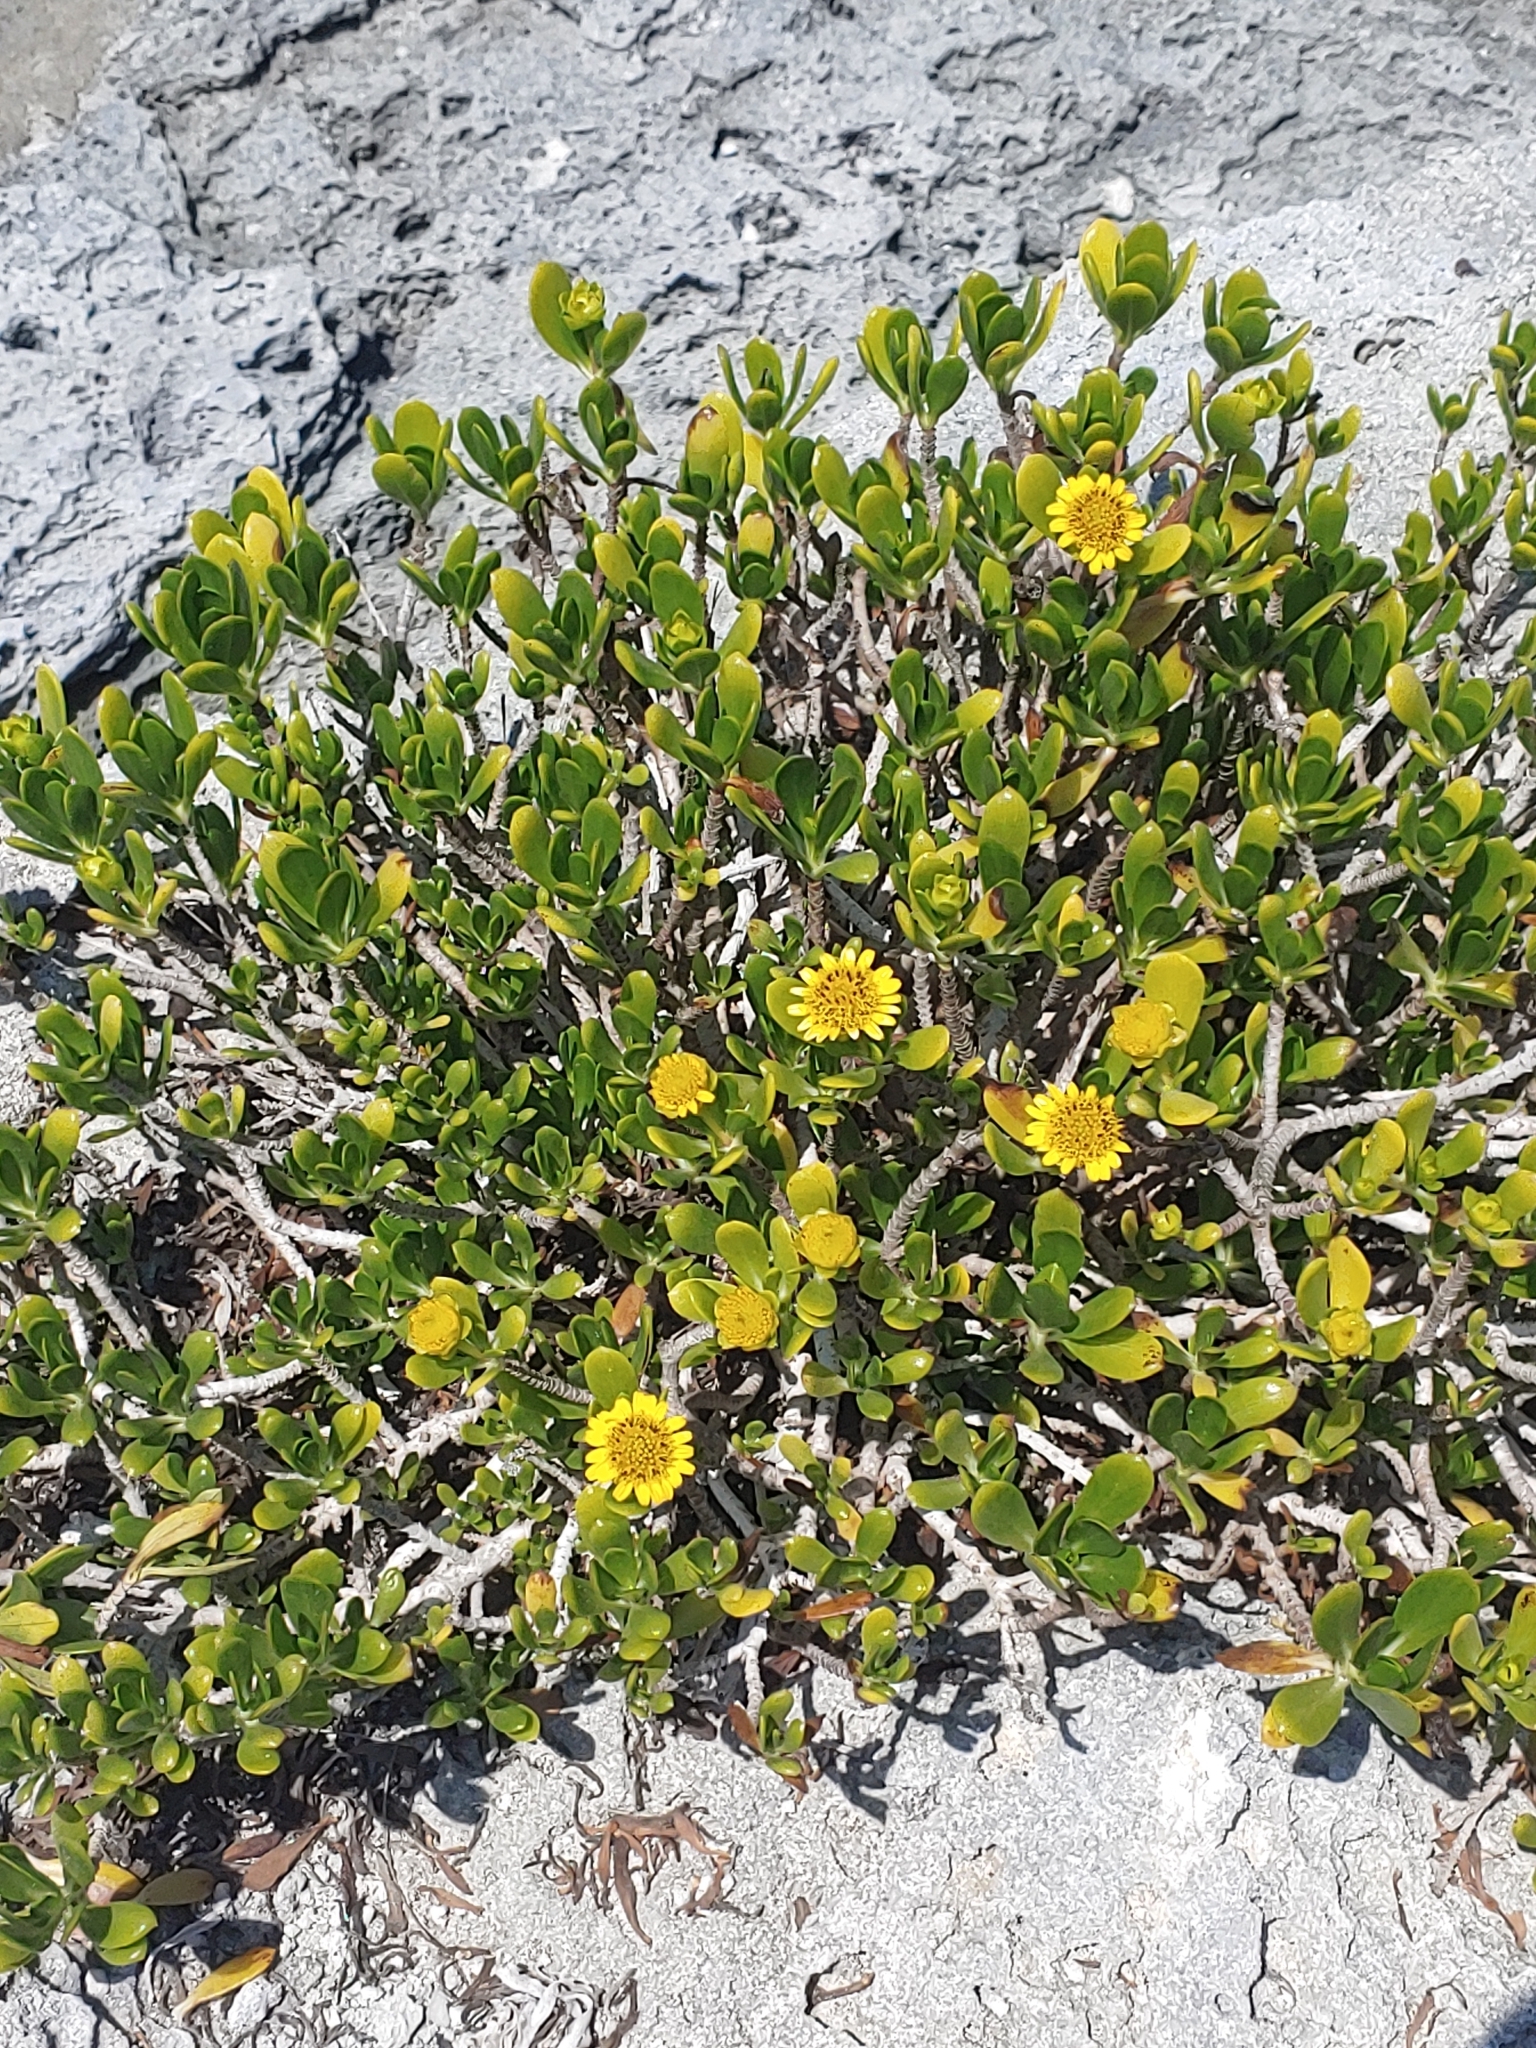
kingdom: Plantae
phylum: Tracheophyta
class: Magnoliopsida
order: Asterales
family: Asteraceae
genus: Borrichia
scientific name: Borrichia arborescens
